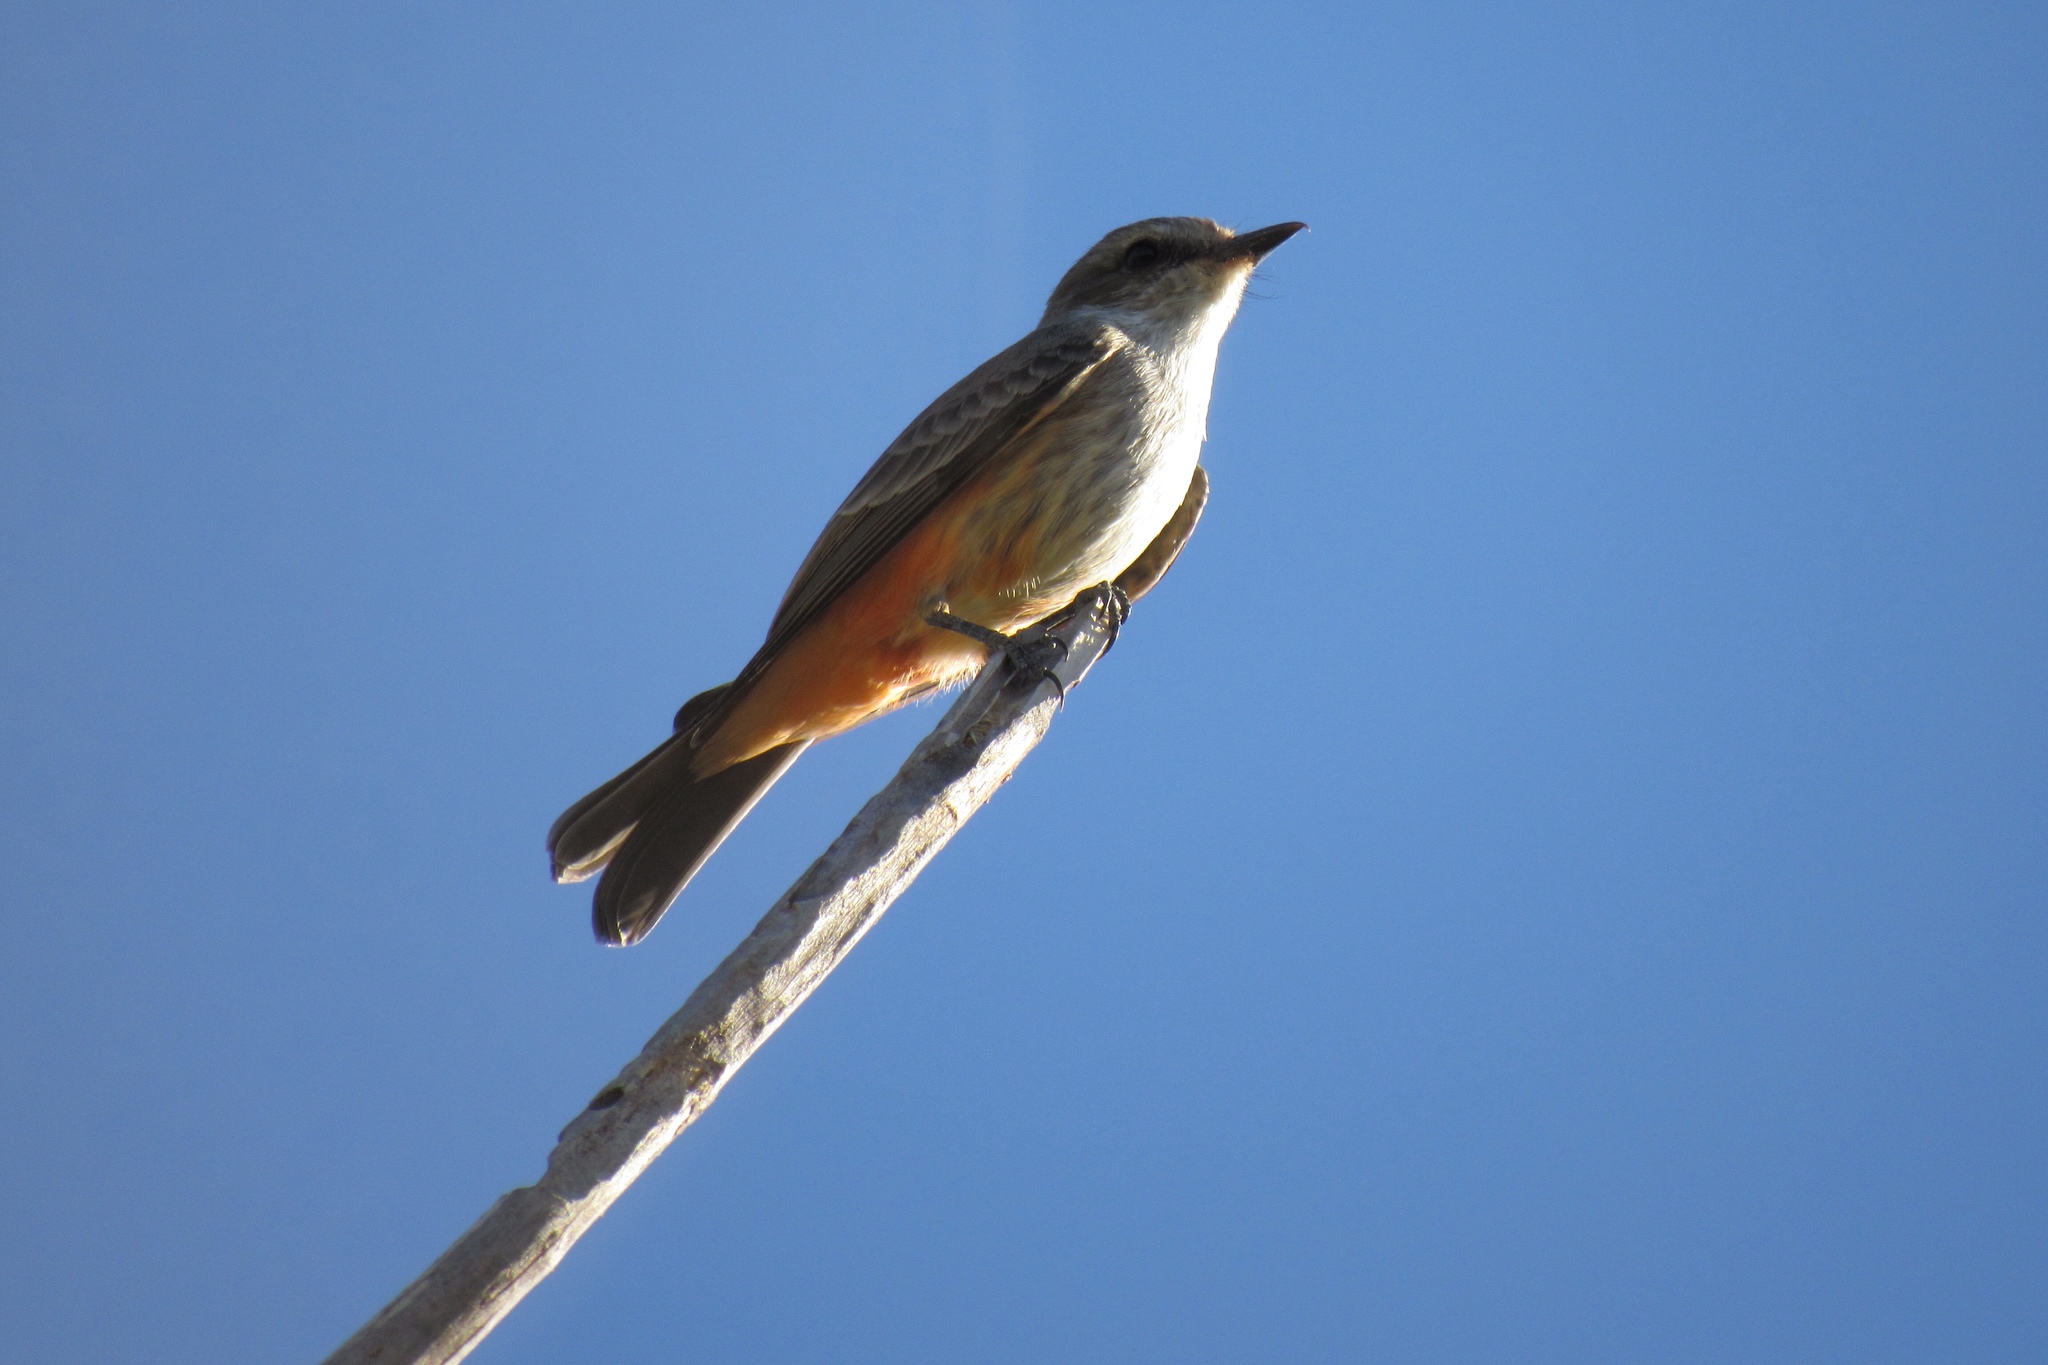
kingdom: Animalia
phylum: Chordata
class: Aves
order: Passeriformes
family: Tyrannidae
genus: Pyrocephalus
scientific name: Pyrocephalus rubinus
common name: Vermilion flycatcher
